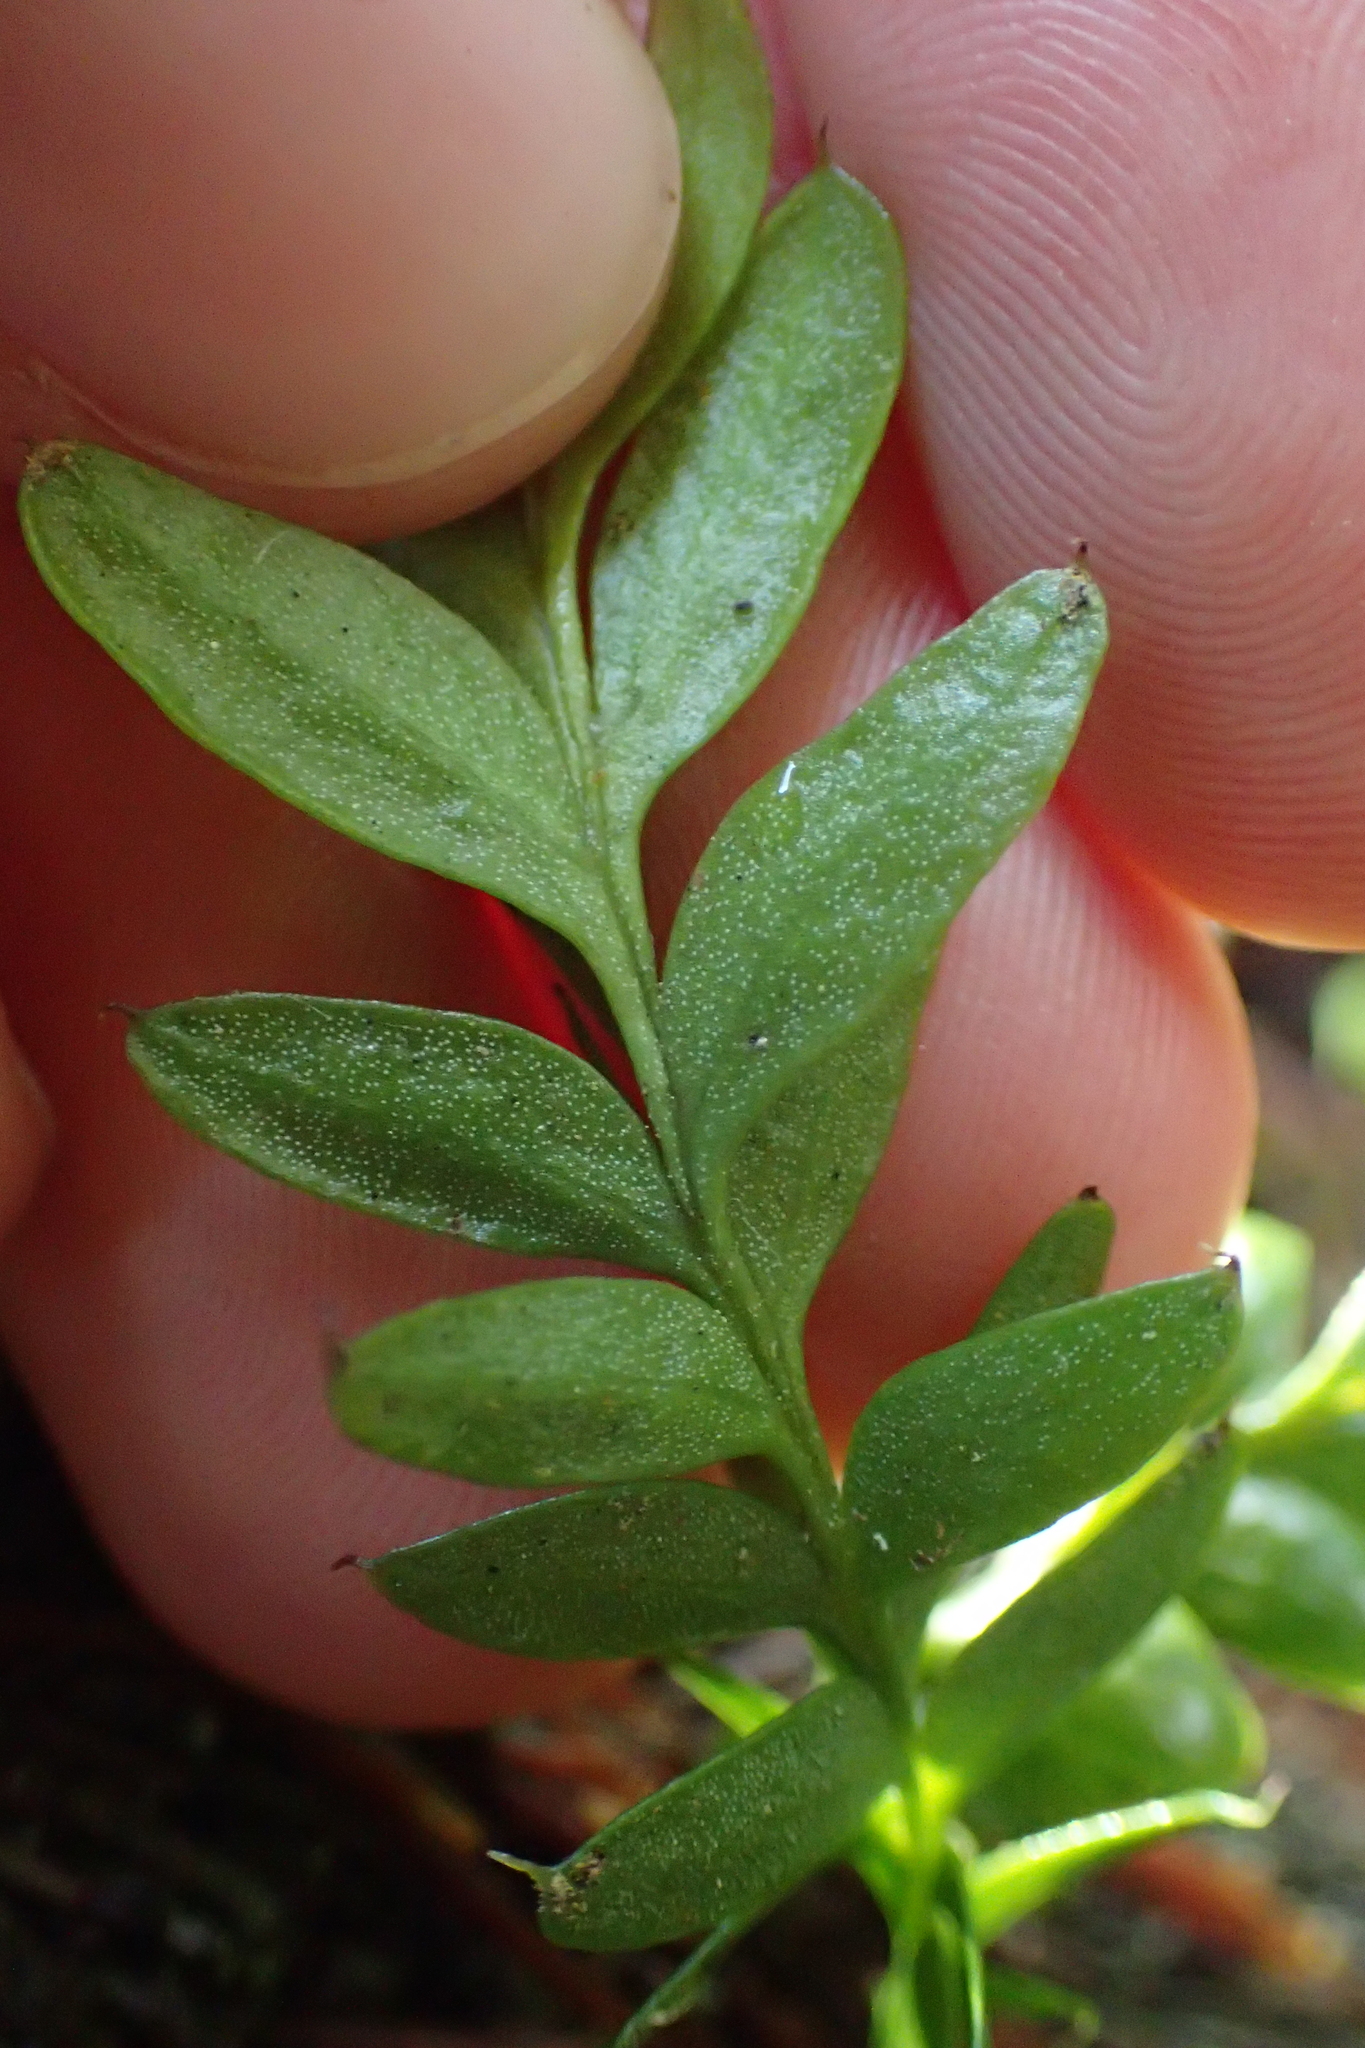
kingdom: Plantae
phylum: Tracheophyta
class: Polypodiopsida
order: Psilotales
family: Psilotaceae
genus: Tmesipteris
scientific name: Tmesipteris lanceolata
